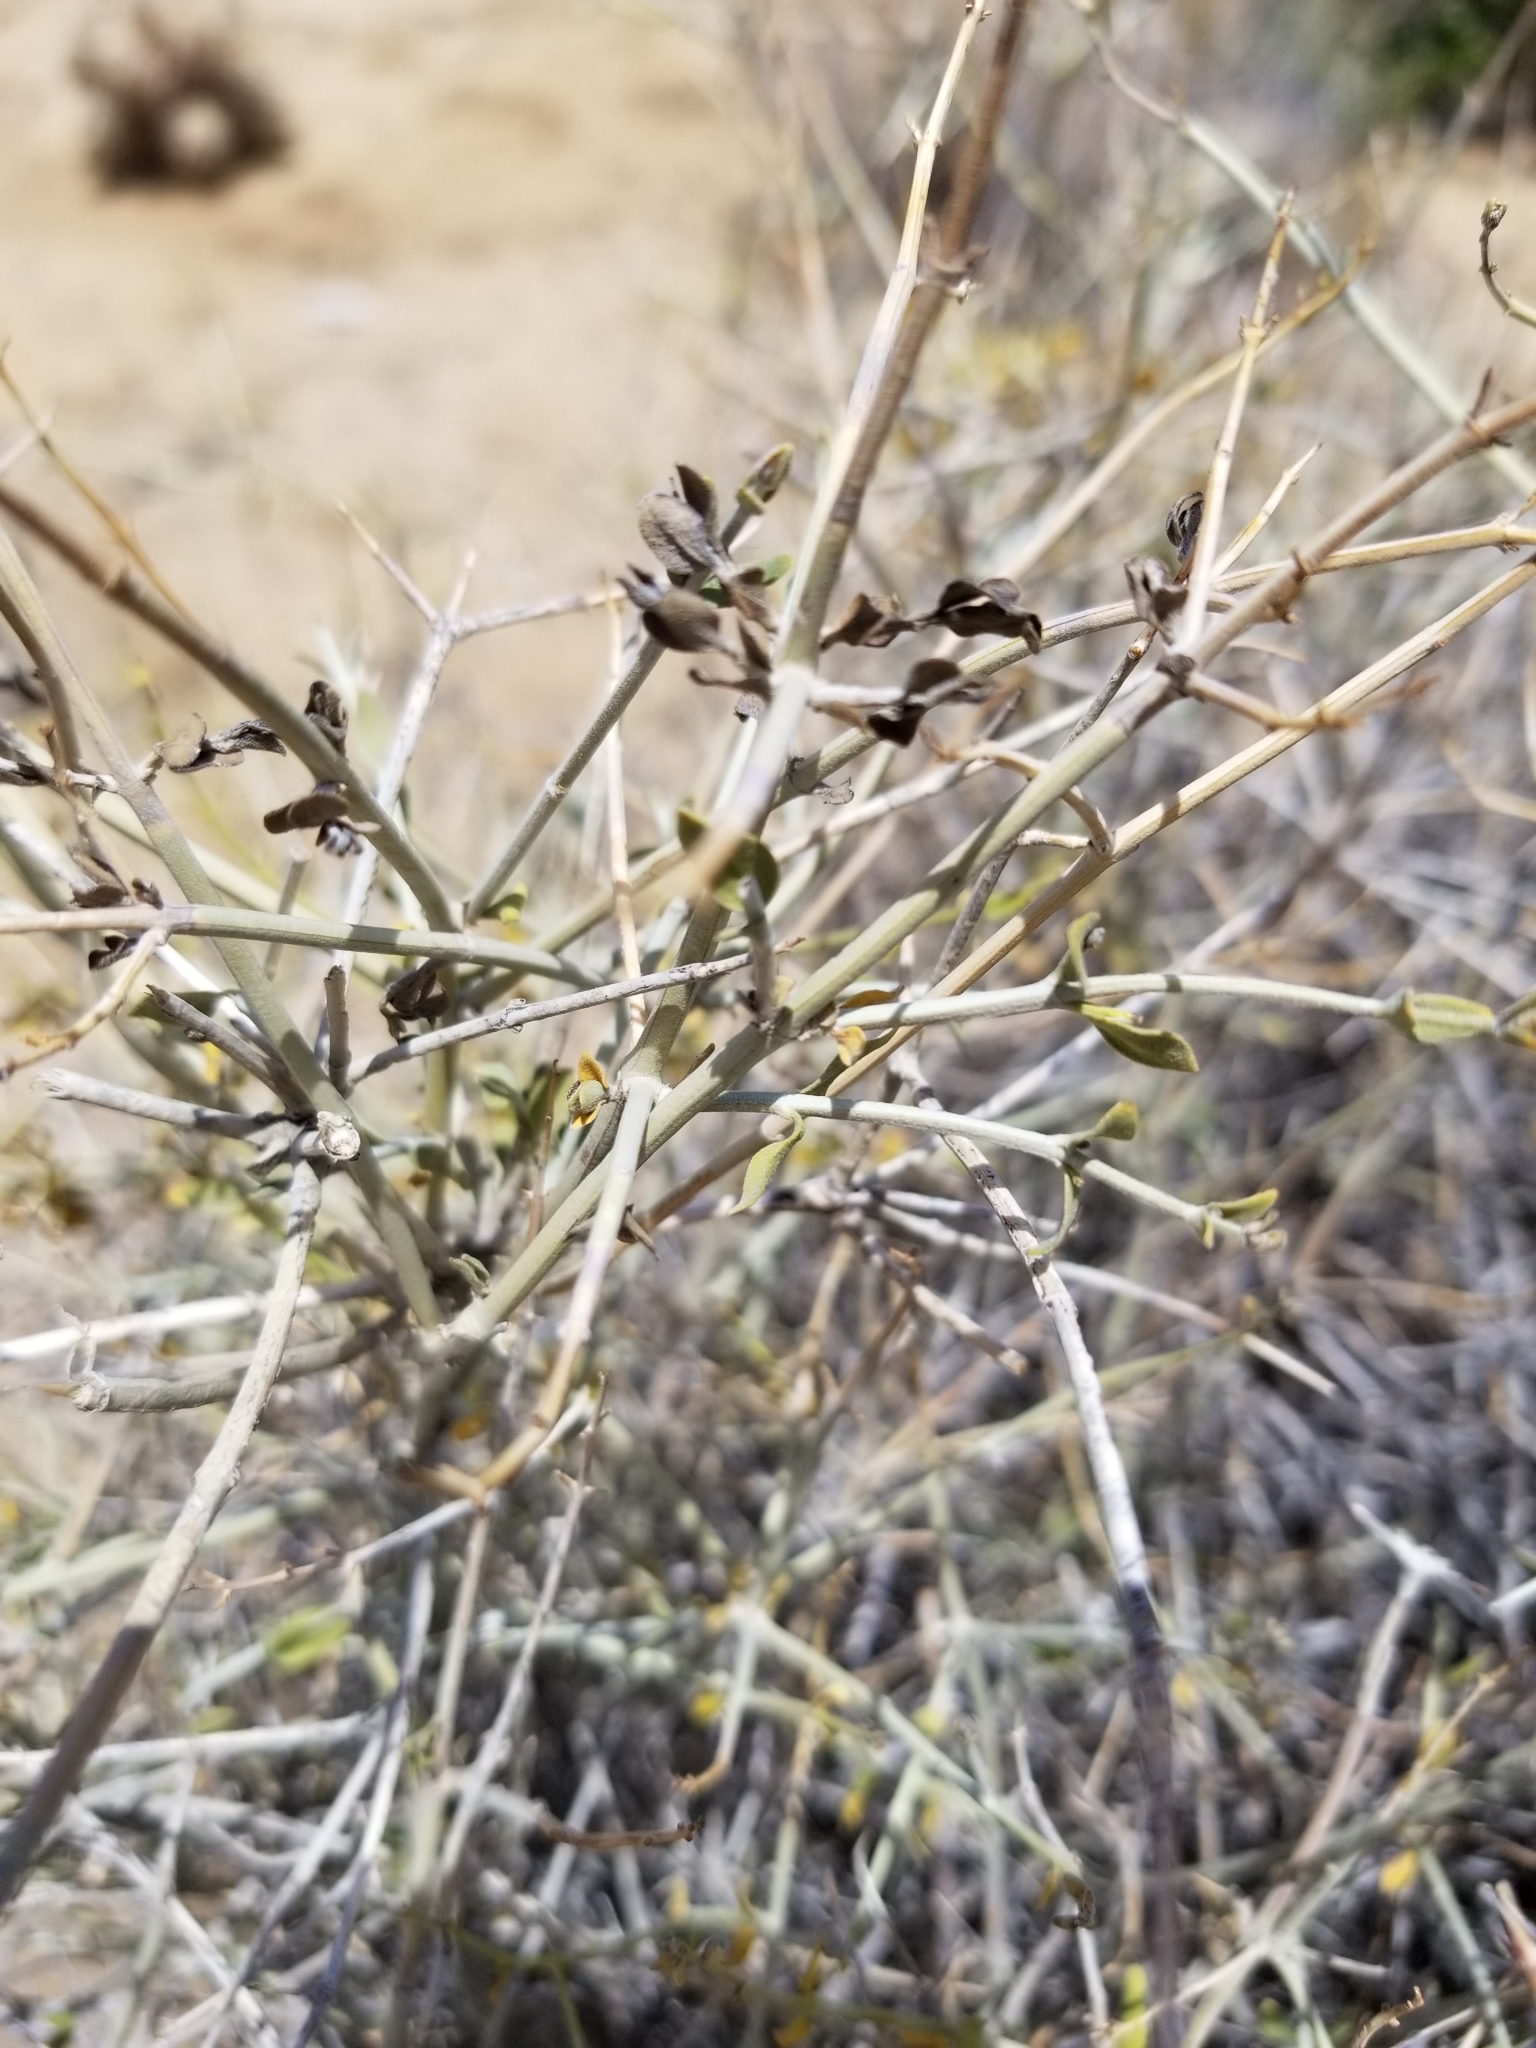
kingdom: Plantae
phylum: Tracheophyta
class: Magnoliopsida
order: Lamiales
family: Lamiaceae
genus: Scutellaria
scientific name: Scutellaria mexicana
